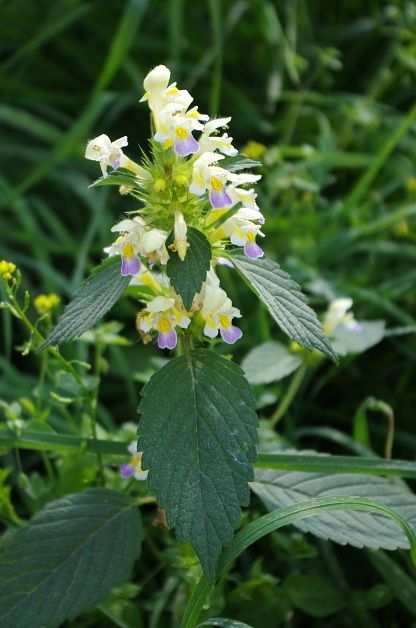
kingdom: Plantae
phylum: Tracheophyta
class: Magnoliopsida
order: Lamiales
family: Lamiaceae
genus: Galeopsis
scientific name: Galeopsis speciosa
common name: Large-flowered hemp-nettle
